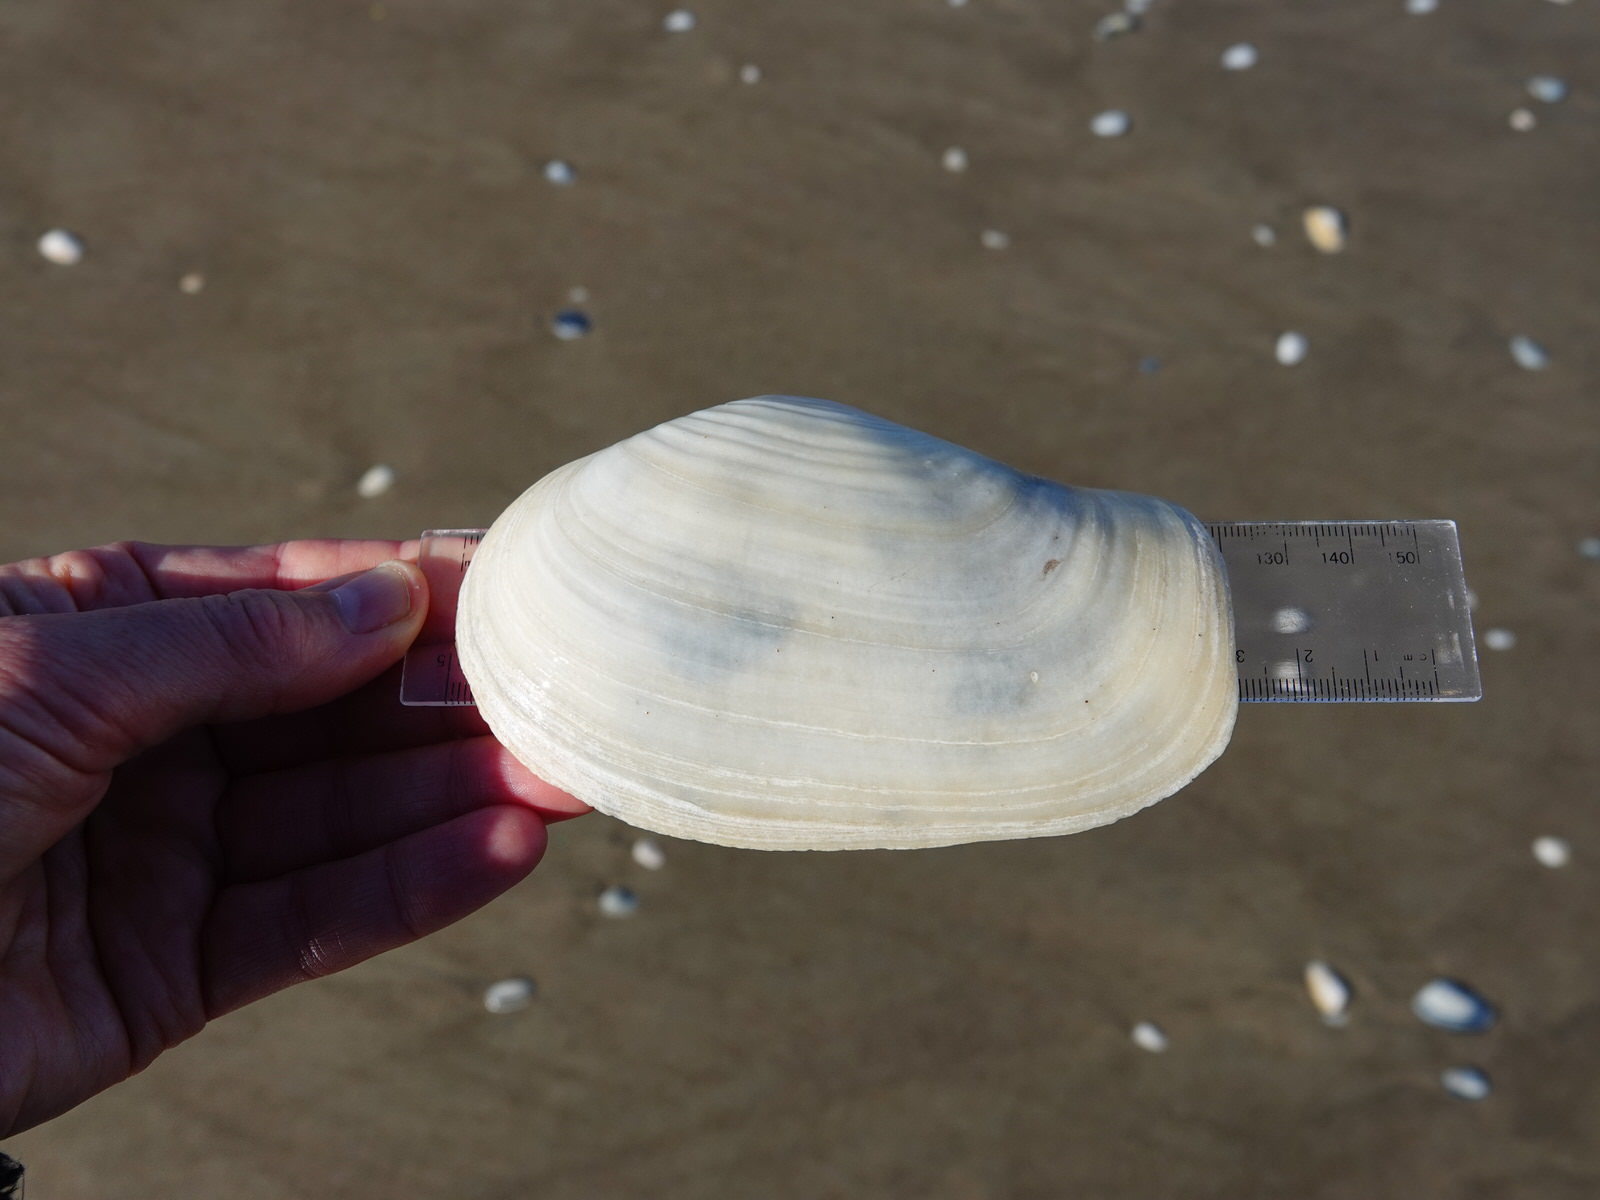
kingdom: Animalia
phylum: Mollusca
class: Bivalvia
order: Adapedonta
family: Hiatellidae
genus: Panopea
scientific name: Panopea zelandica
